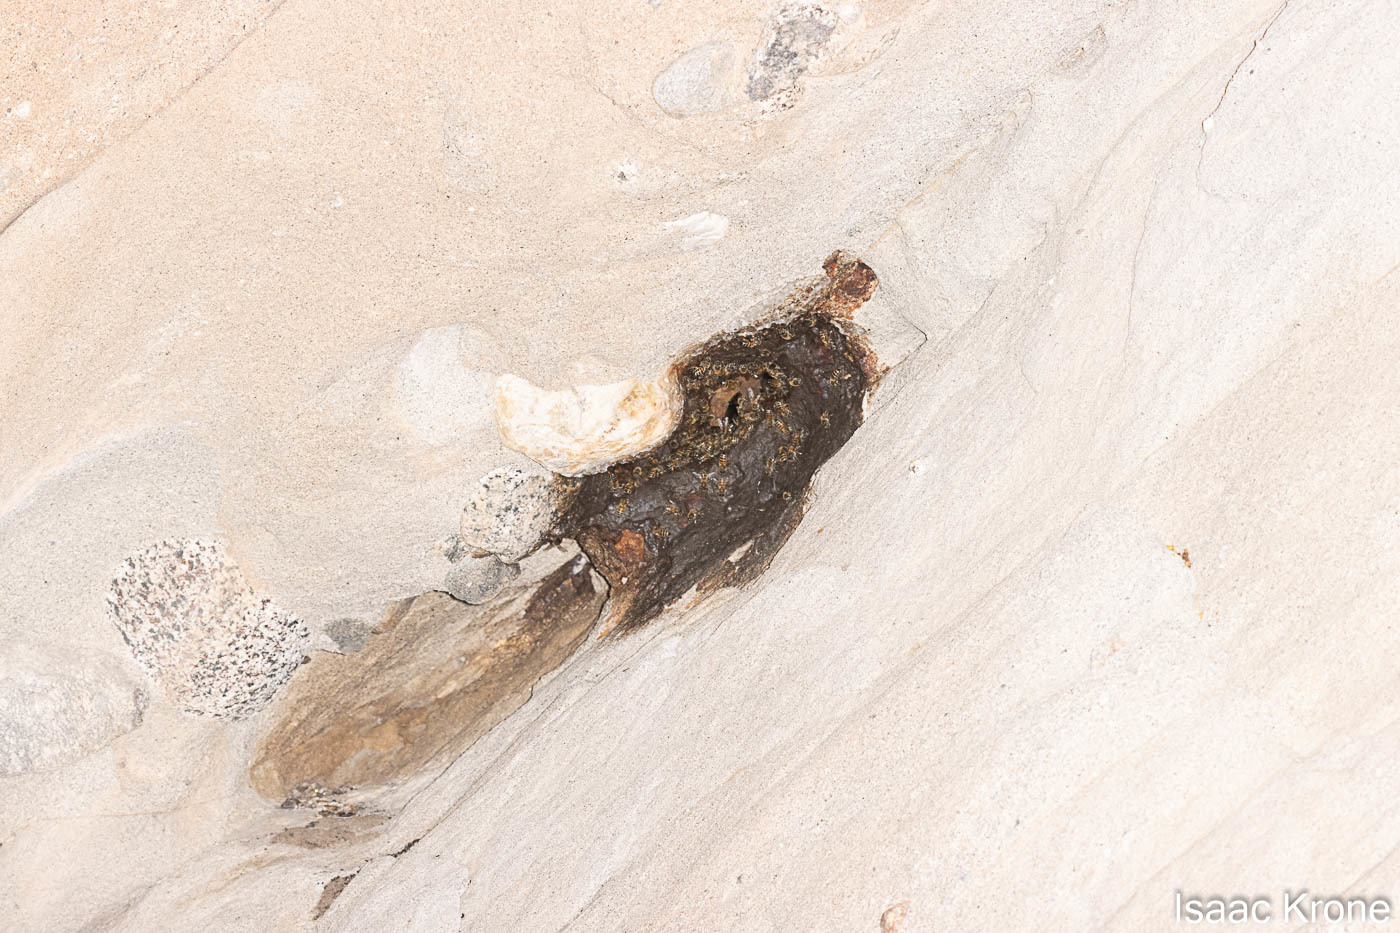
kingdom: Animalia
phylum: Arthropoda
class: Insecta
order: Hymenoptera
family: Apidae
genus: Apis
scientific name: Apis mellifera
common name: Honey bee
